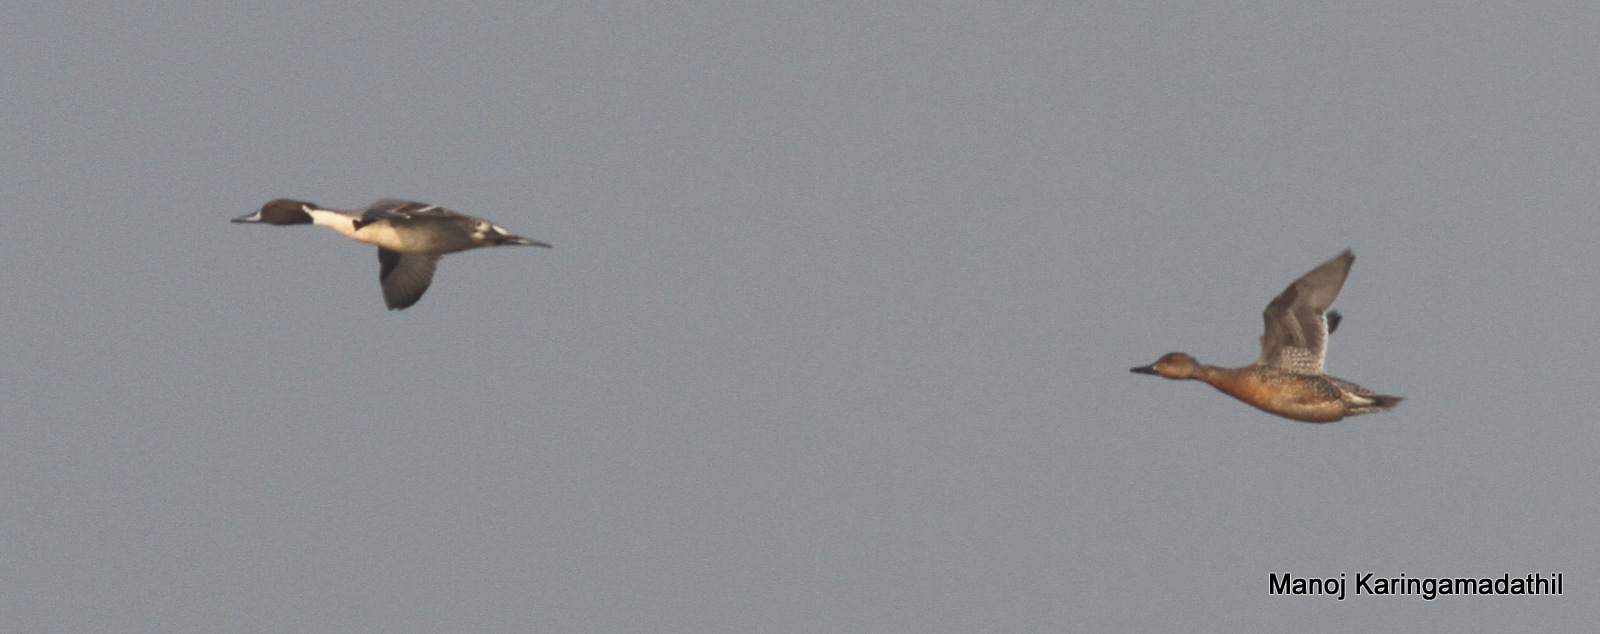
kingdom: Animalia
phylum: Chordata
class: Aves
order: Anseriformes
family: Anatidae
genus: Anas
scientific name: Anas acuta
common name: Northern pintail
